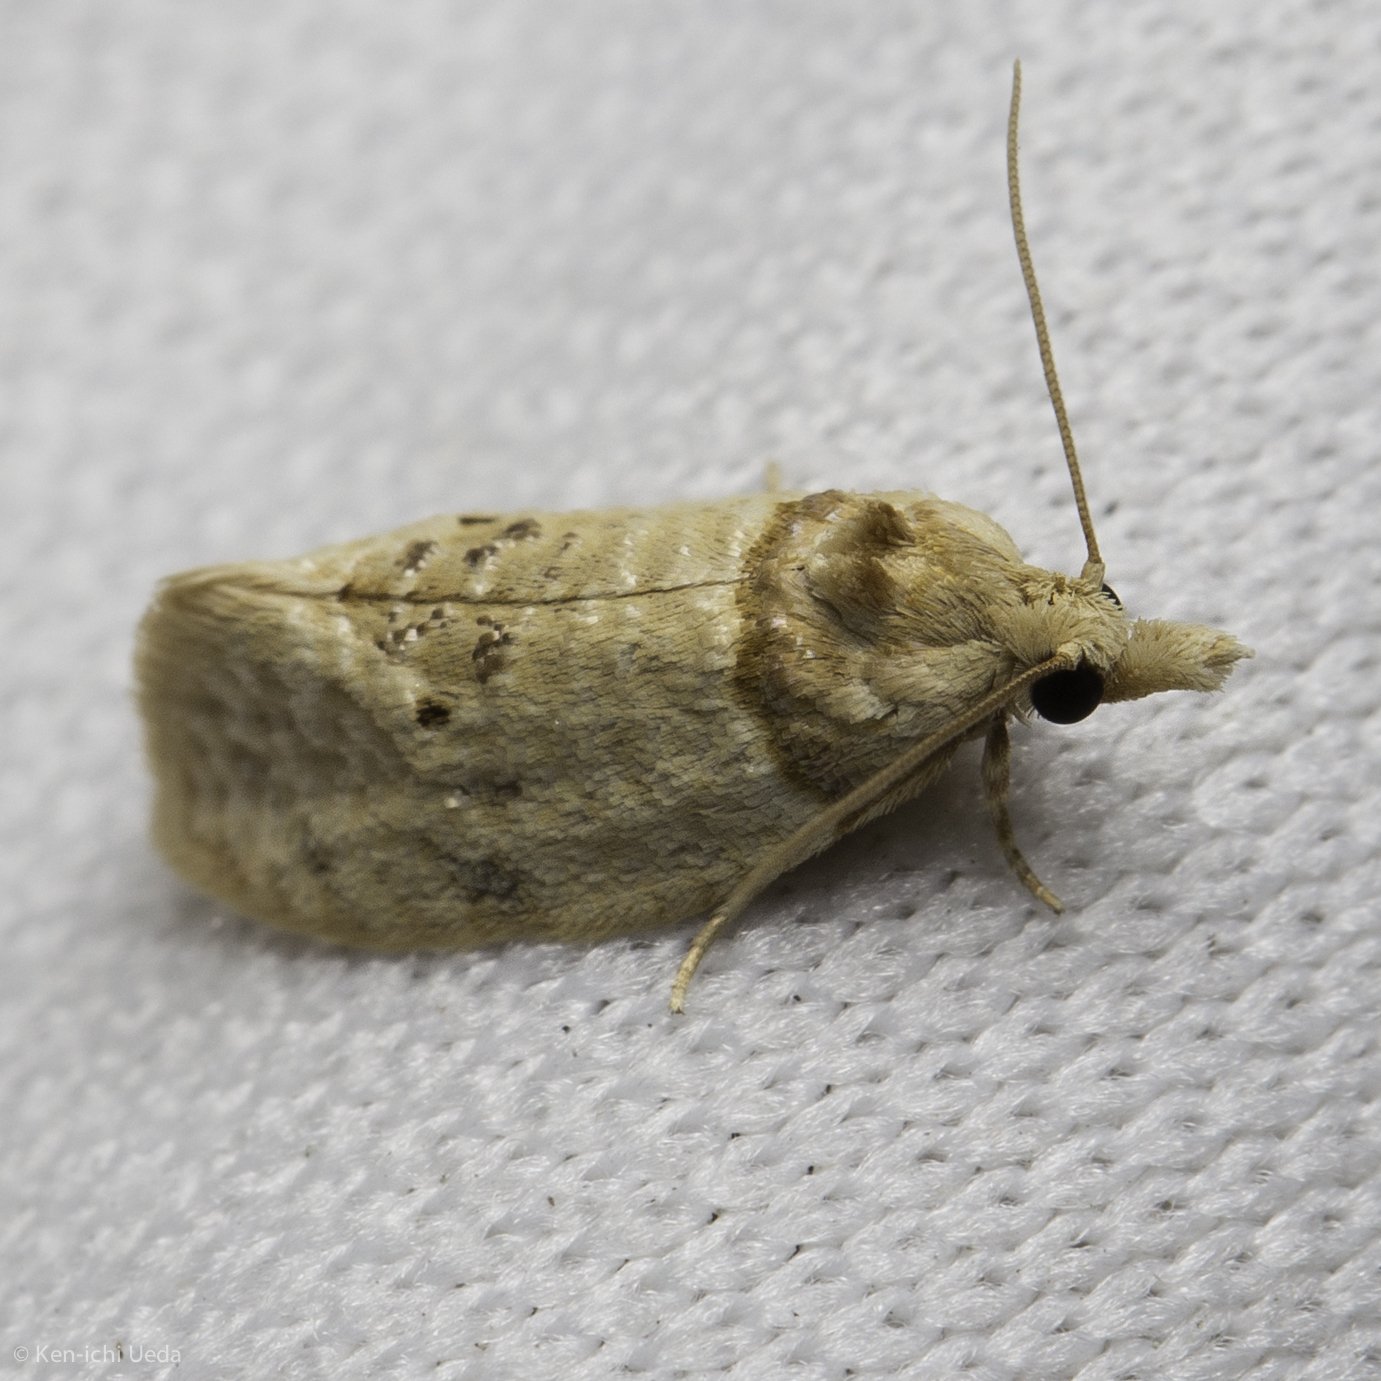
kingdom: Animalia
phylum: Arthropoda
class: Insecta
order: Lepidoptera
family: Tortricidae
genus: Henricus
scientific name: Henricus umbrabasana
